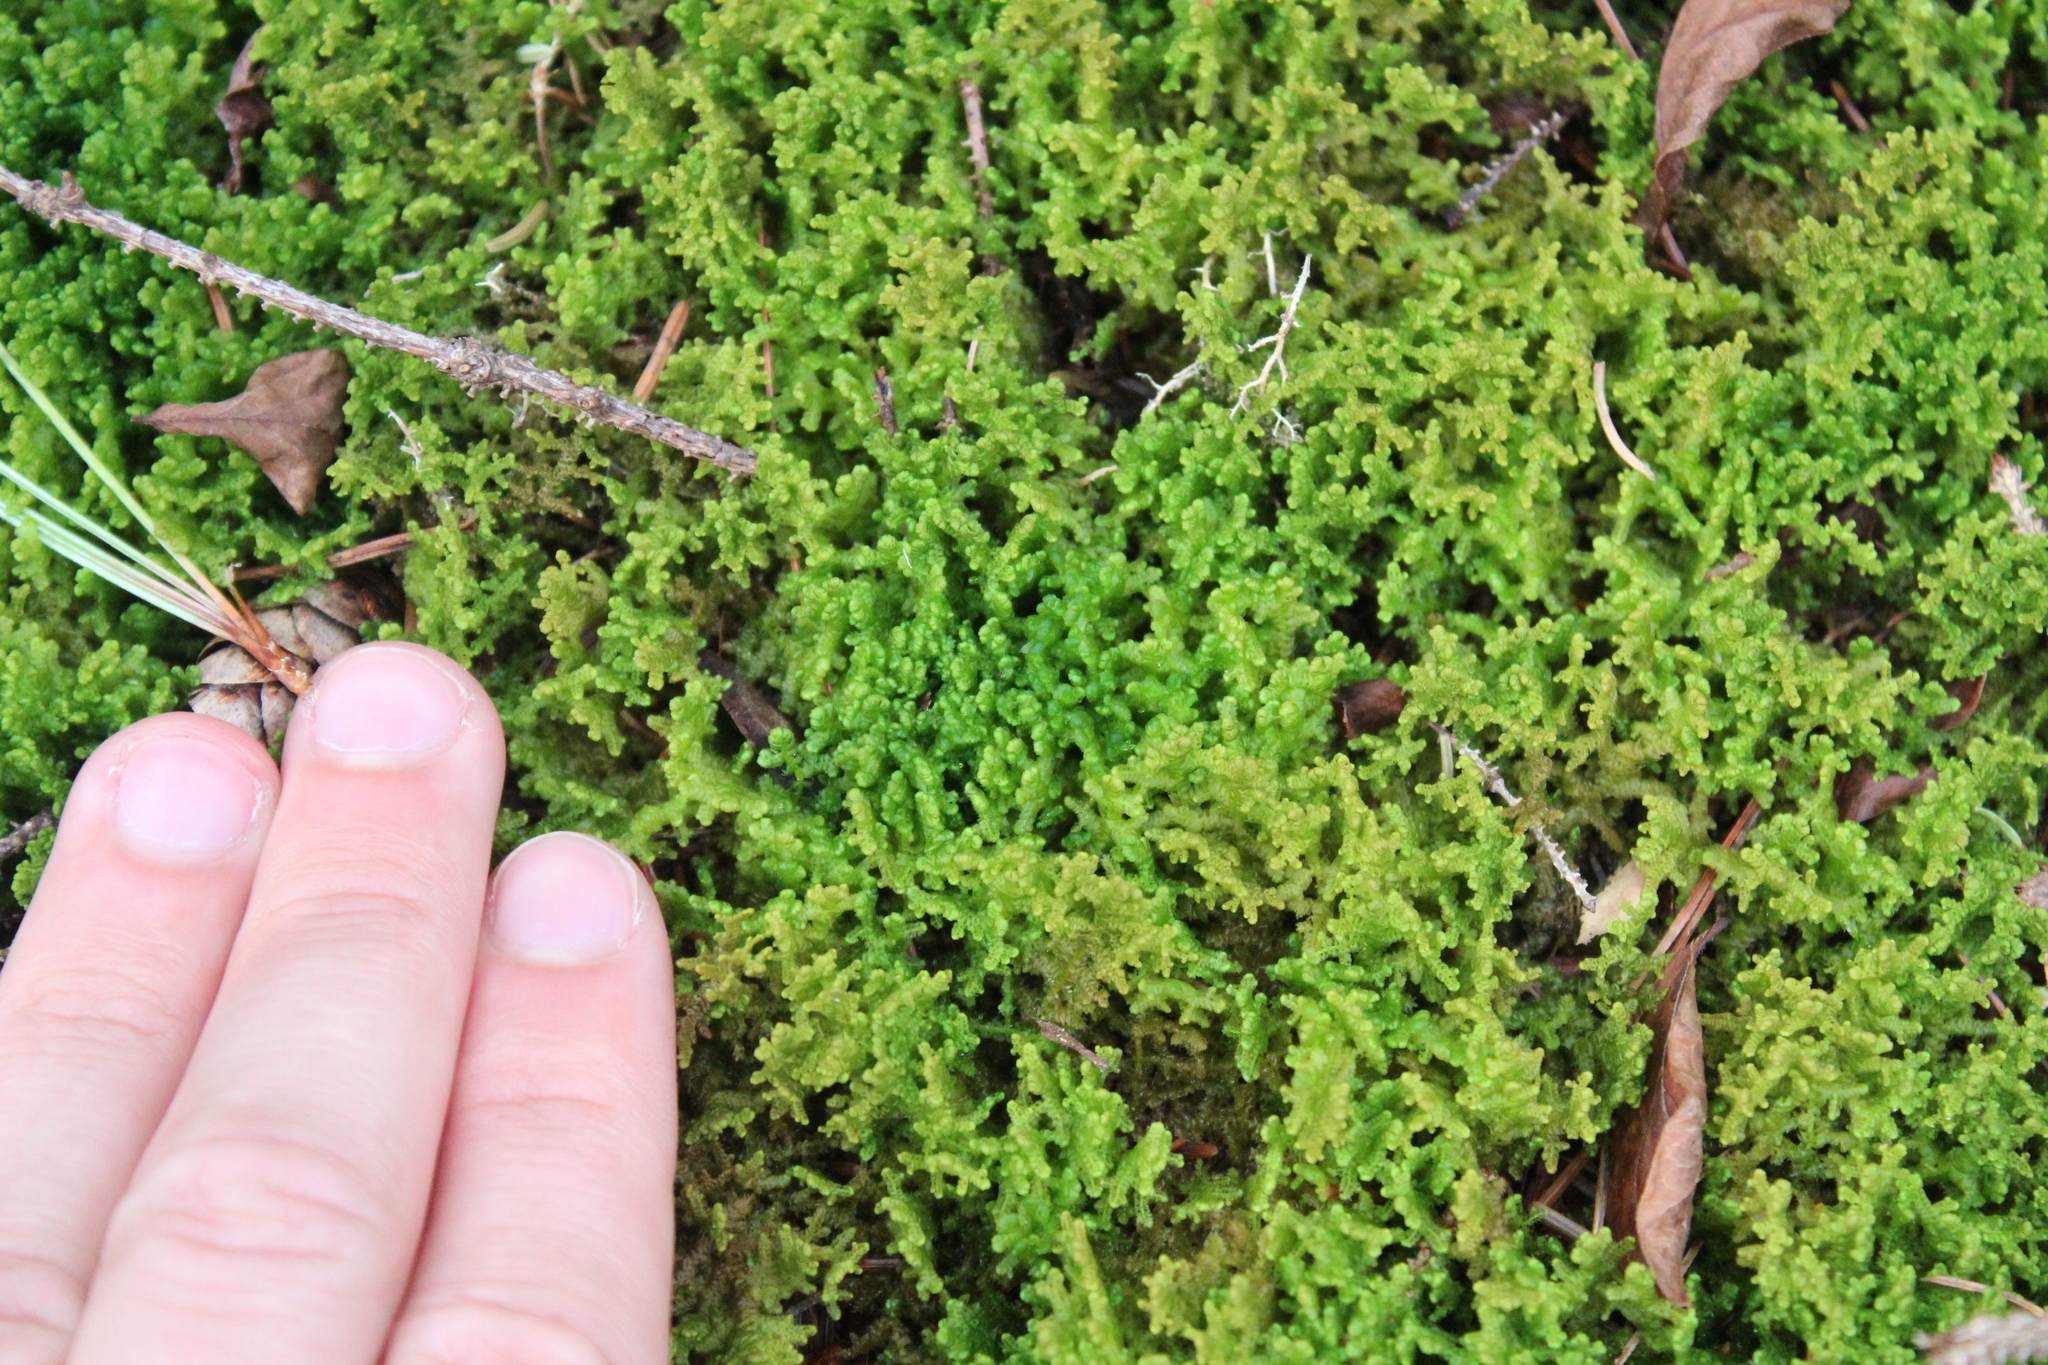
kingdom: Plantae
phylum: Marchantiophyta
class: Jungermanniopsida
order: Ptilidiales
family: Ptilidiaceae
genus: Ptilidium
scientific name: Ptilidium ciliare
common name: Ciliate fringewort
